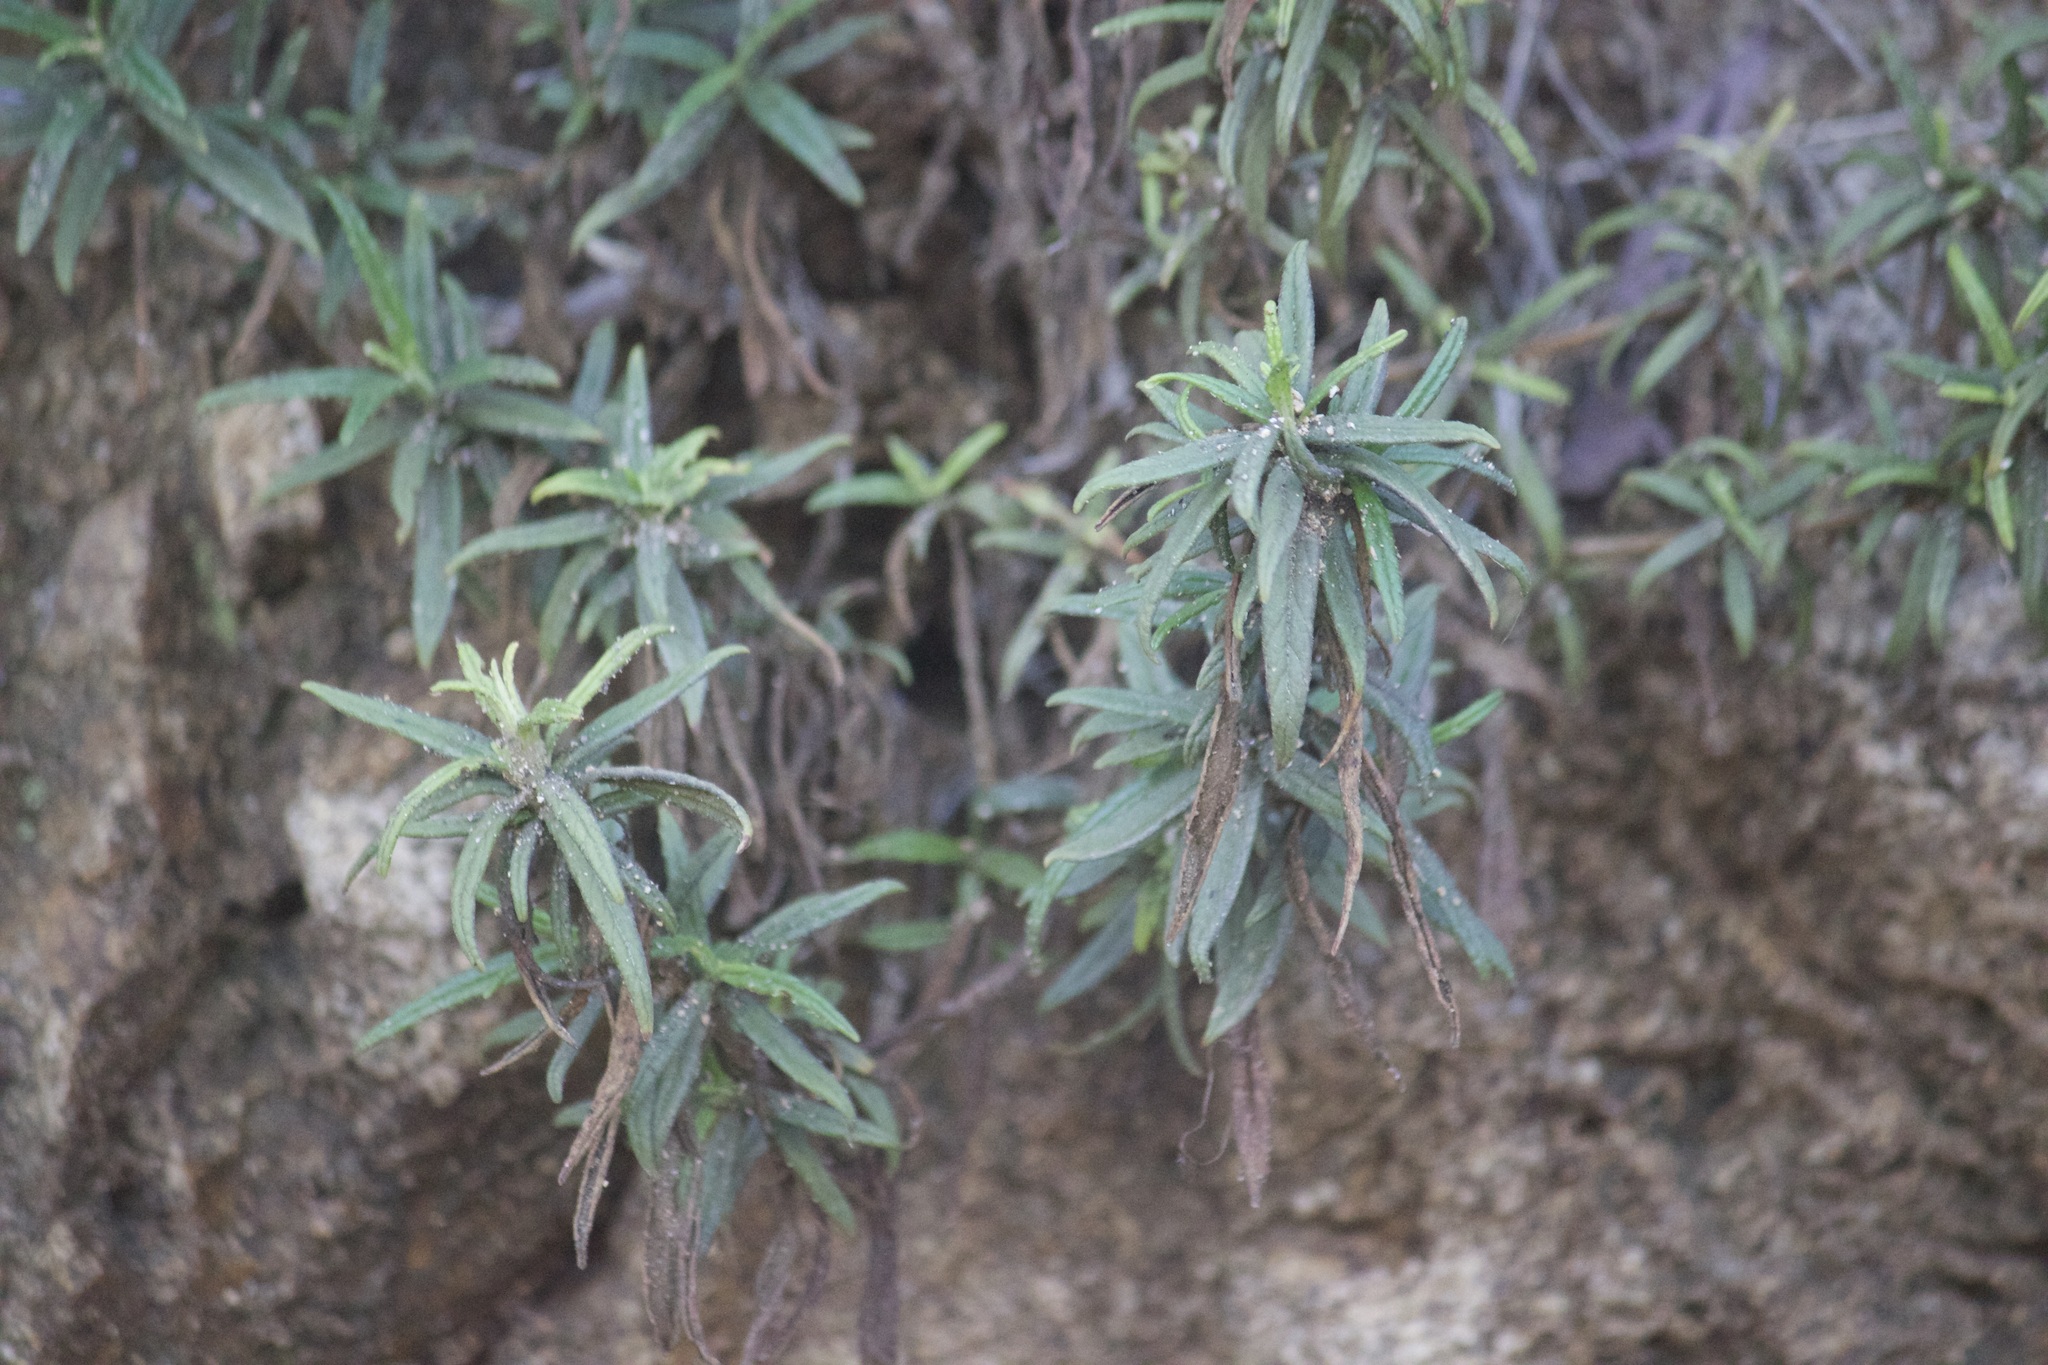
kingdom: Plantae
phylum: Tracheophyta
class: Magnoliopsida
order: Lamiales
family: Phrymaceae
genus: Diplacus
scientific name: Diplacus longiflorus
